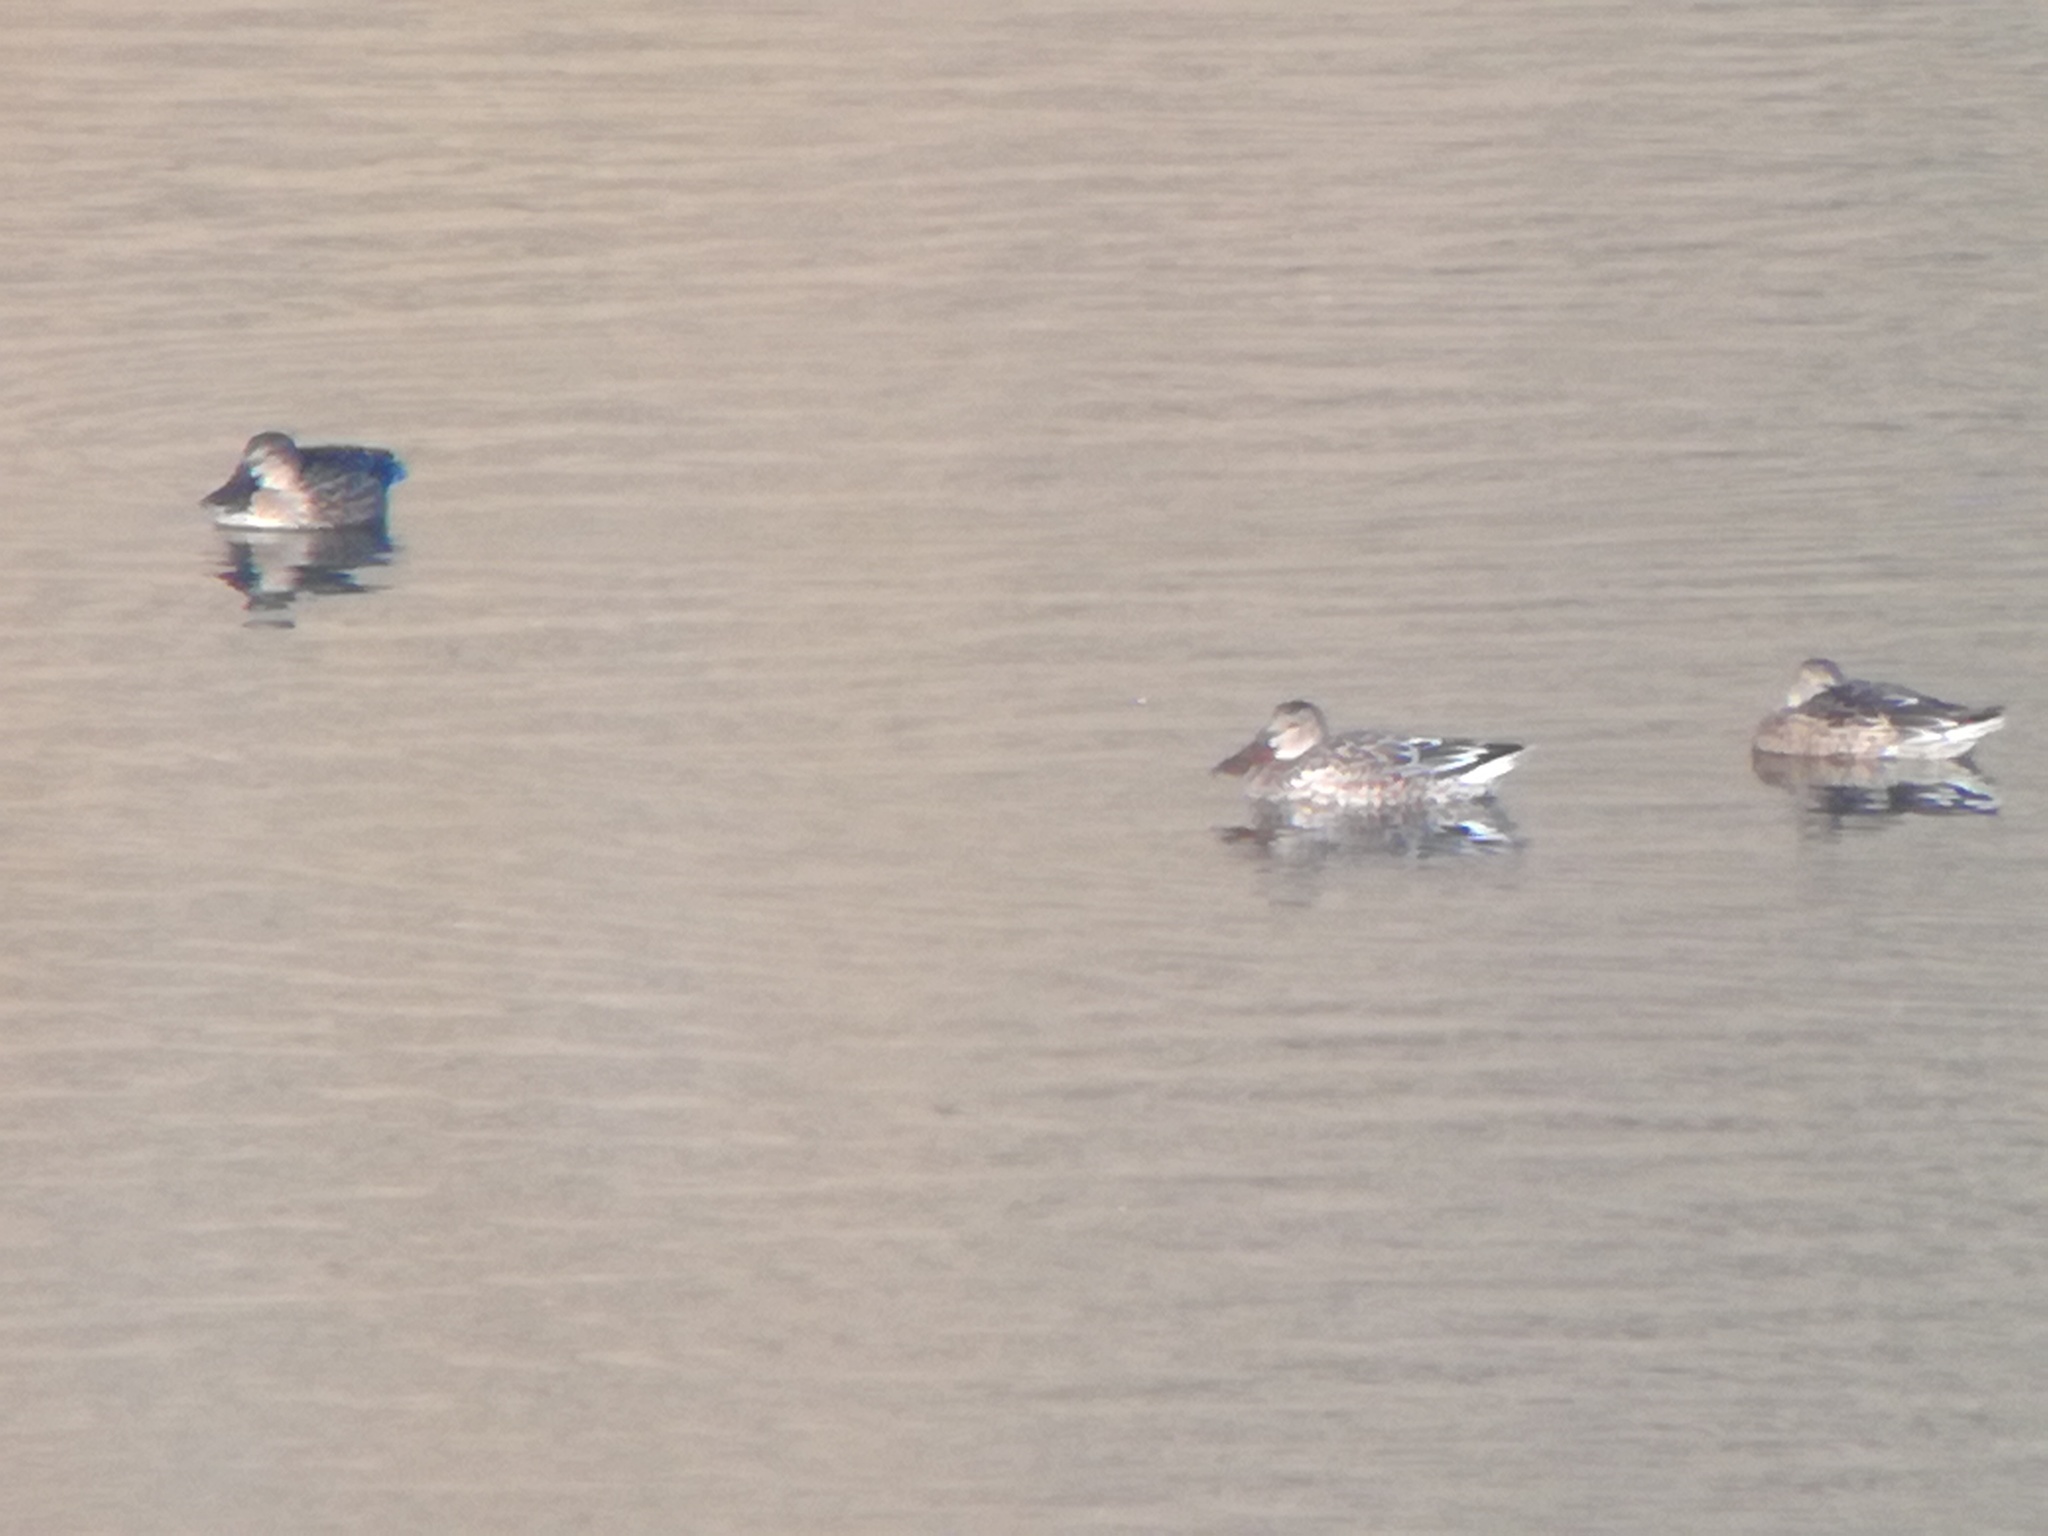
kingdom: Animalia
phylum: Chordata
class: Aves
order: Anseriformes
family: Anatidae
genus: Spatula
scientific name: Spatula clypeata
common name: Northern shoveler
